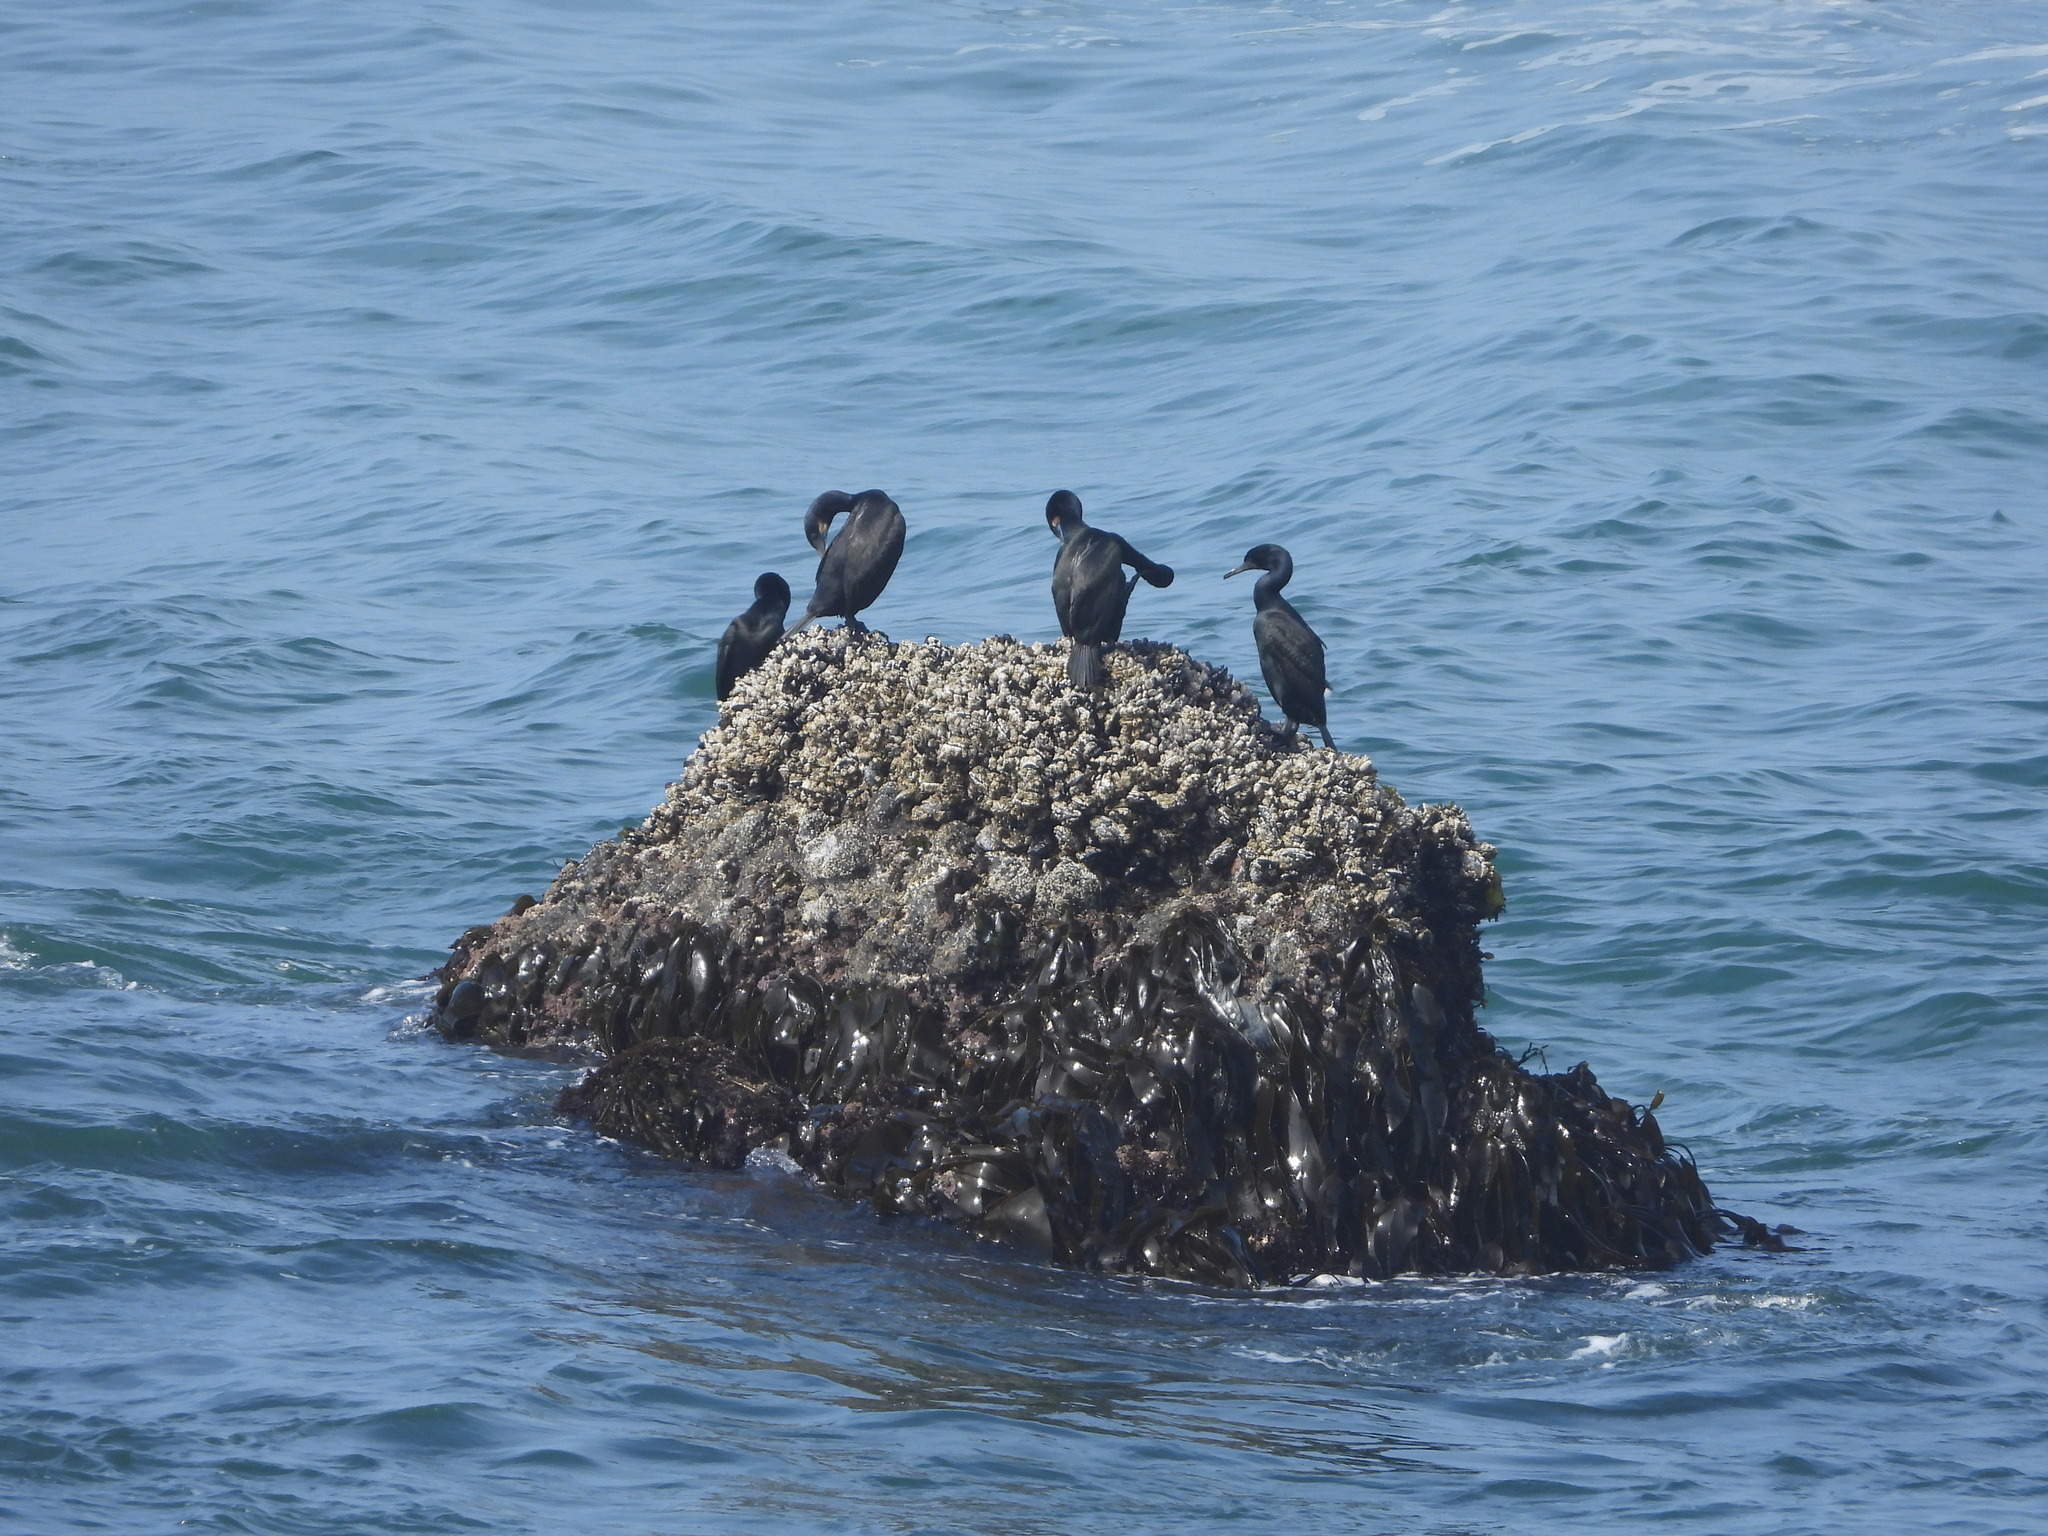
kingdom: Animalia
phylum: Chordata
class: Aves
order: Suliformes
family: Phalacrocoracidae
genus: Urile
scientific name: Urile penicillatus
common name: Brandt's cormorant
